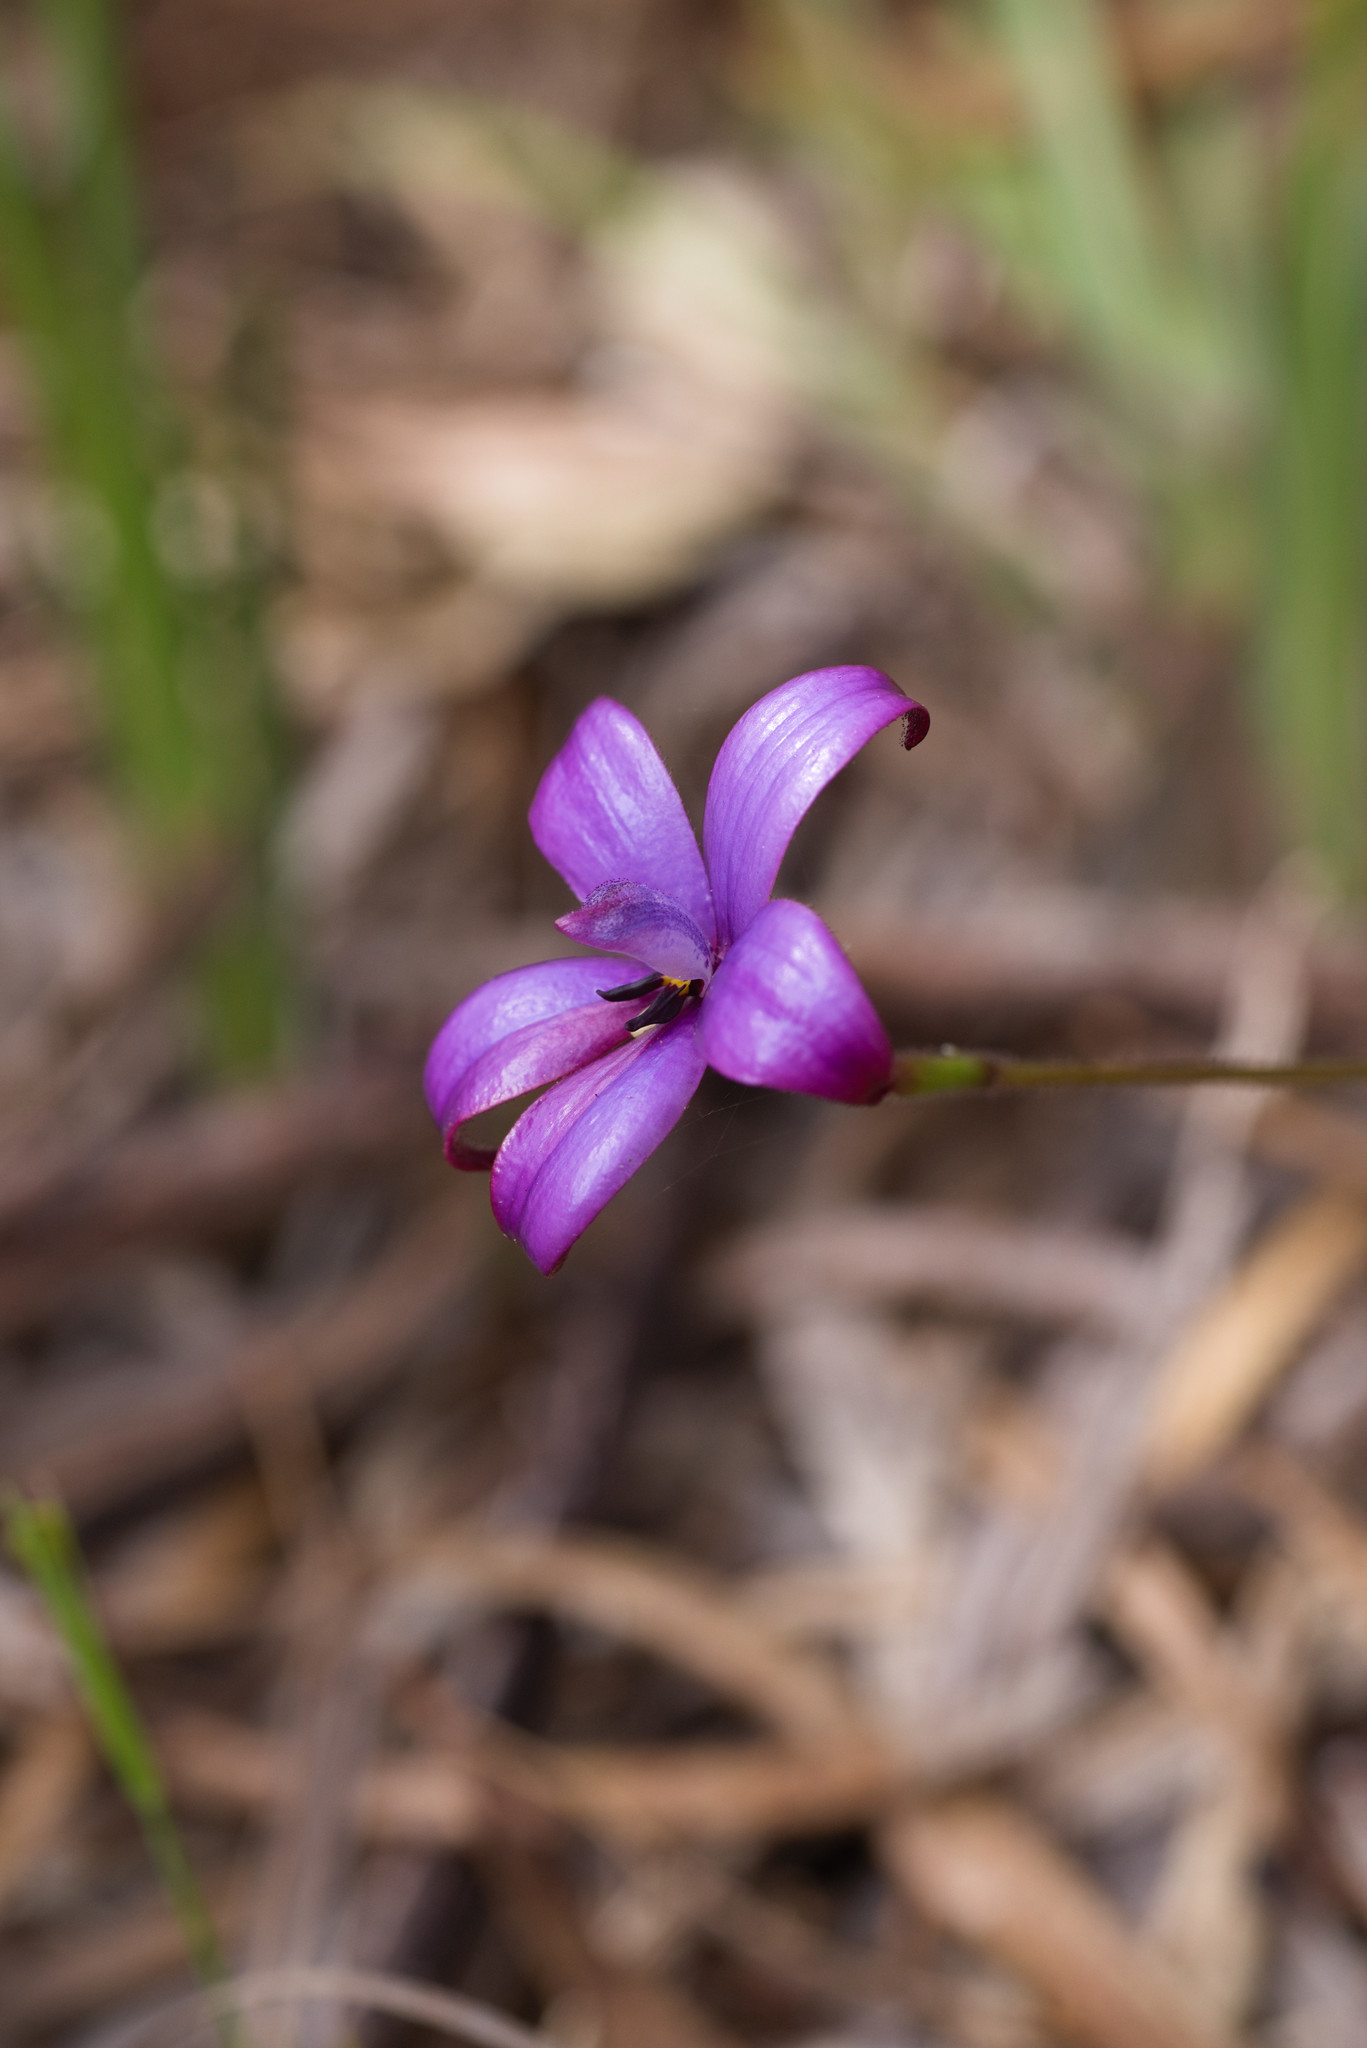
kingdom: Plantae
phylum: Tracheophyta
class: Liliopsida
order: Asparagales
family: Orchidaceae
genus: Caladenia
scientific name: Caladenia brunonis
